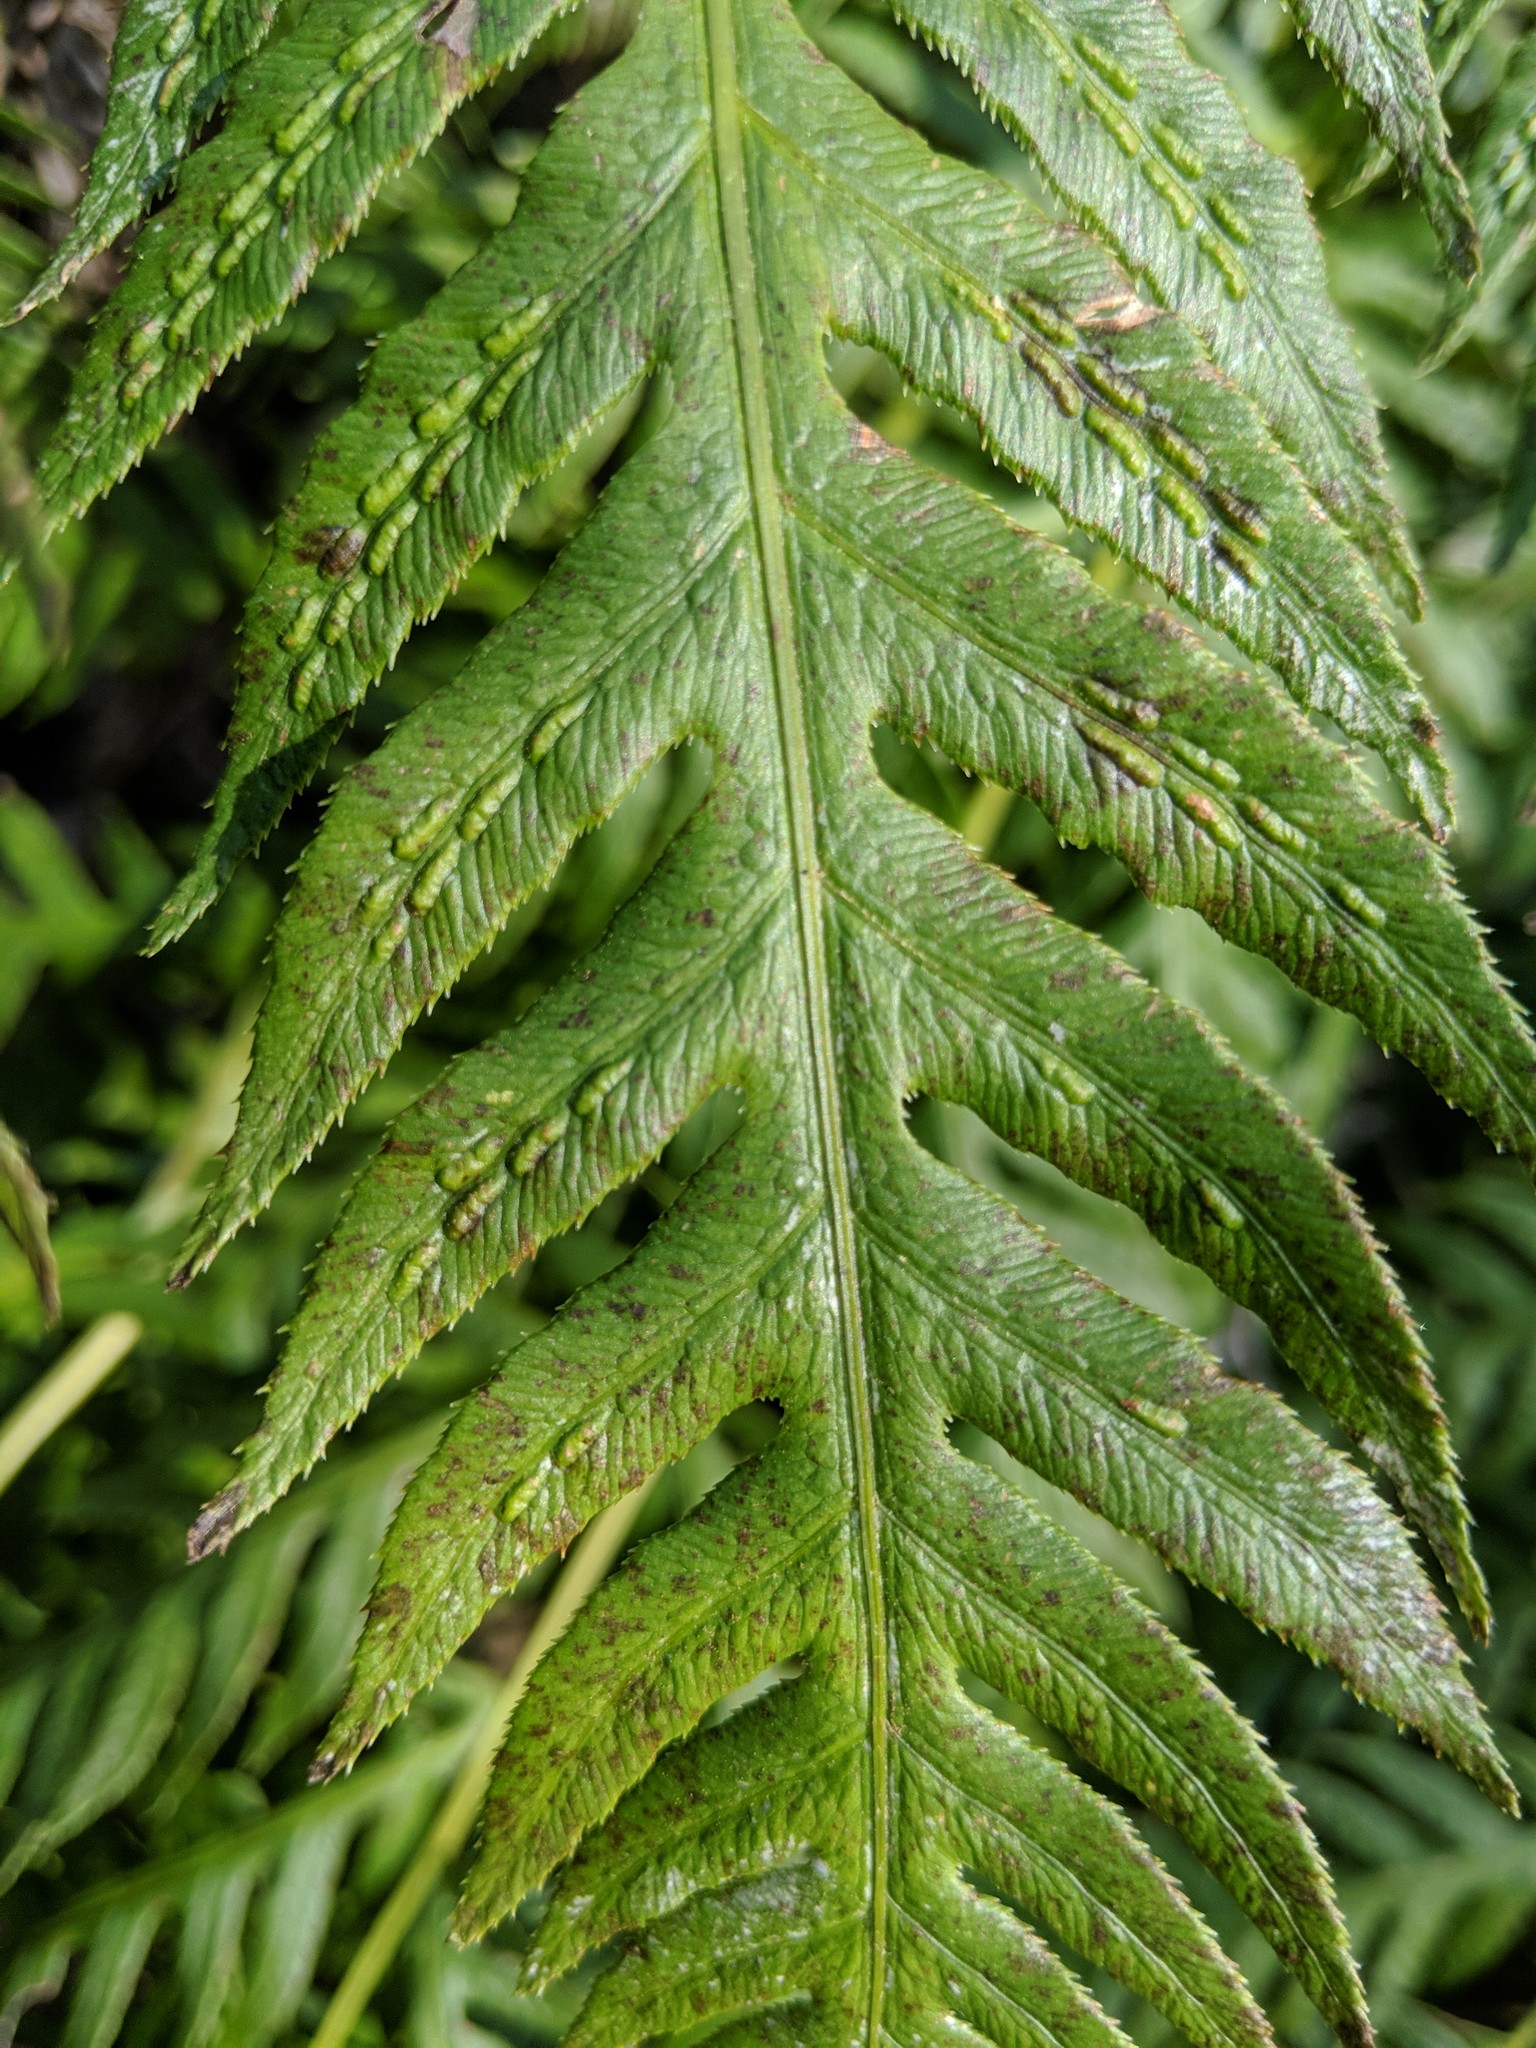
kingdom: Plantae
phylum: Tracheophyta
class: Polypodiopsida
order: Polypodiales
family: Blechnaceae
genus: Woodwardia
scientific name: Woodwardia fimbriata
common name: Giant chain fern
